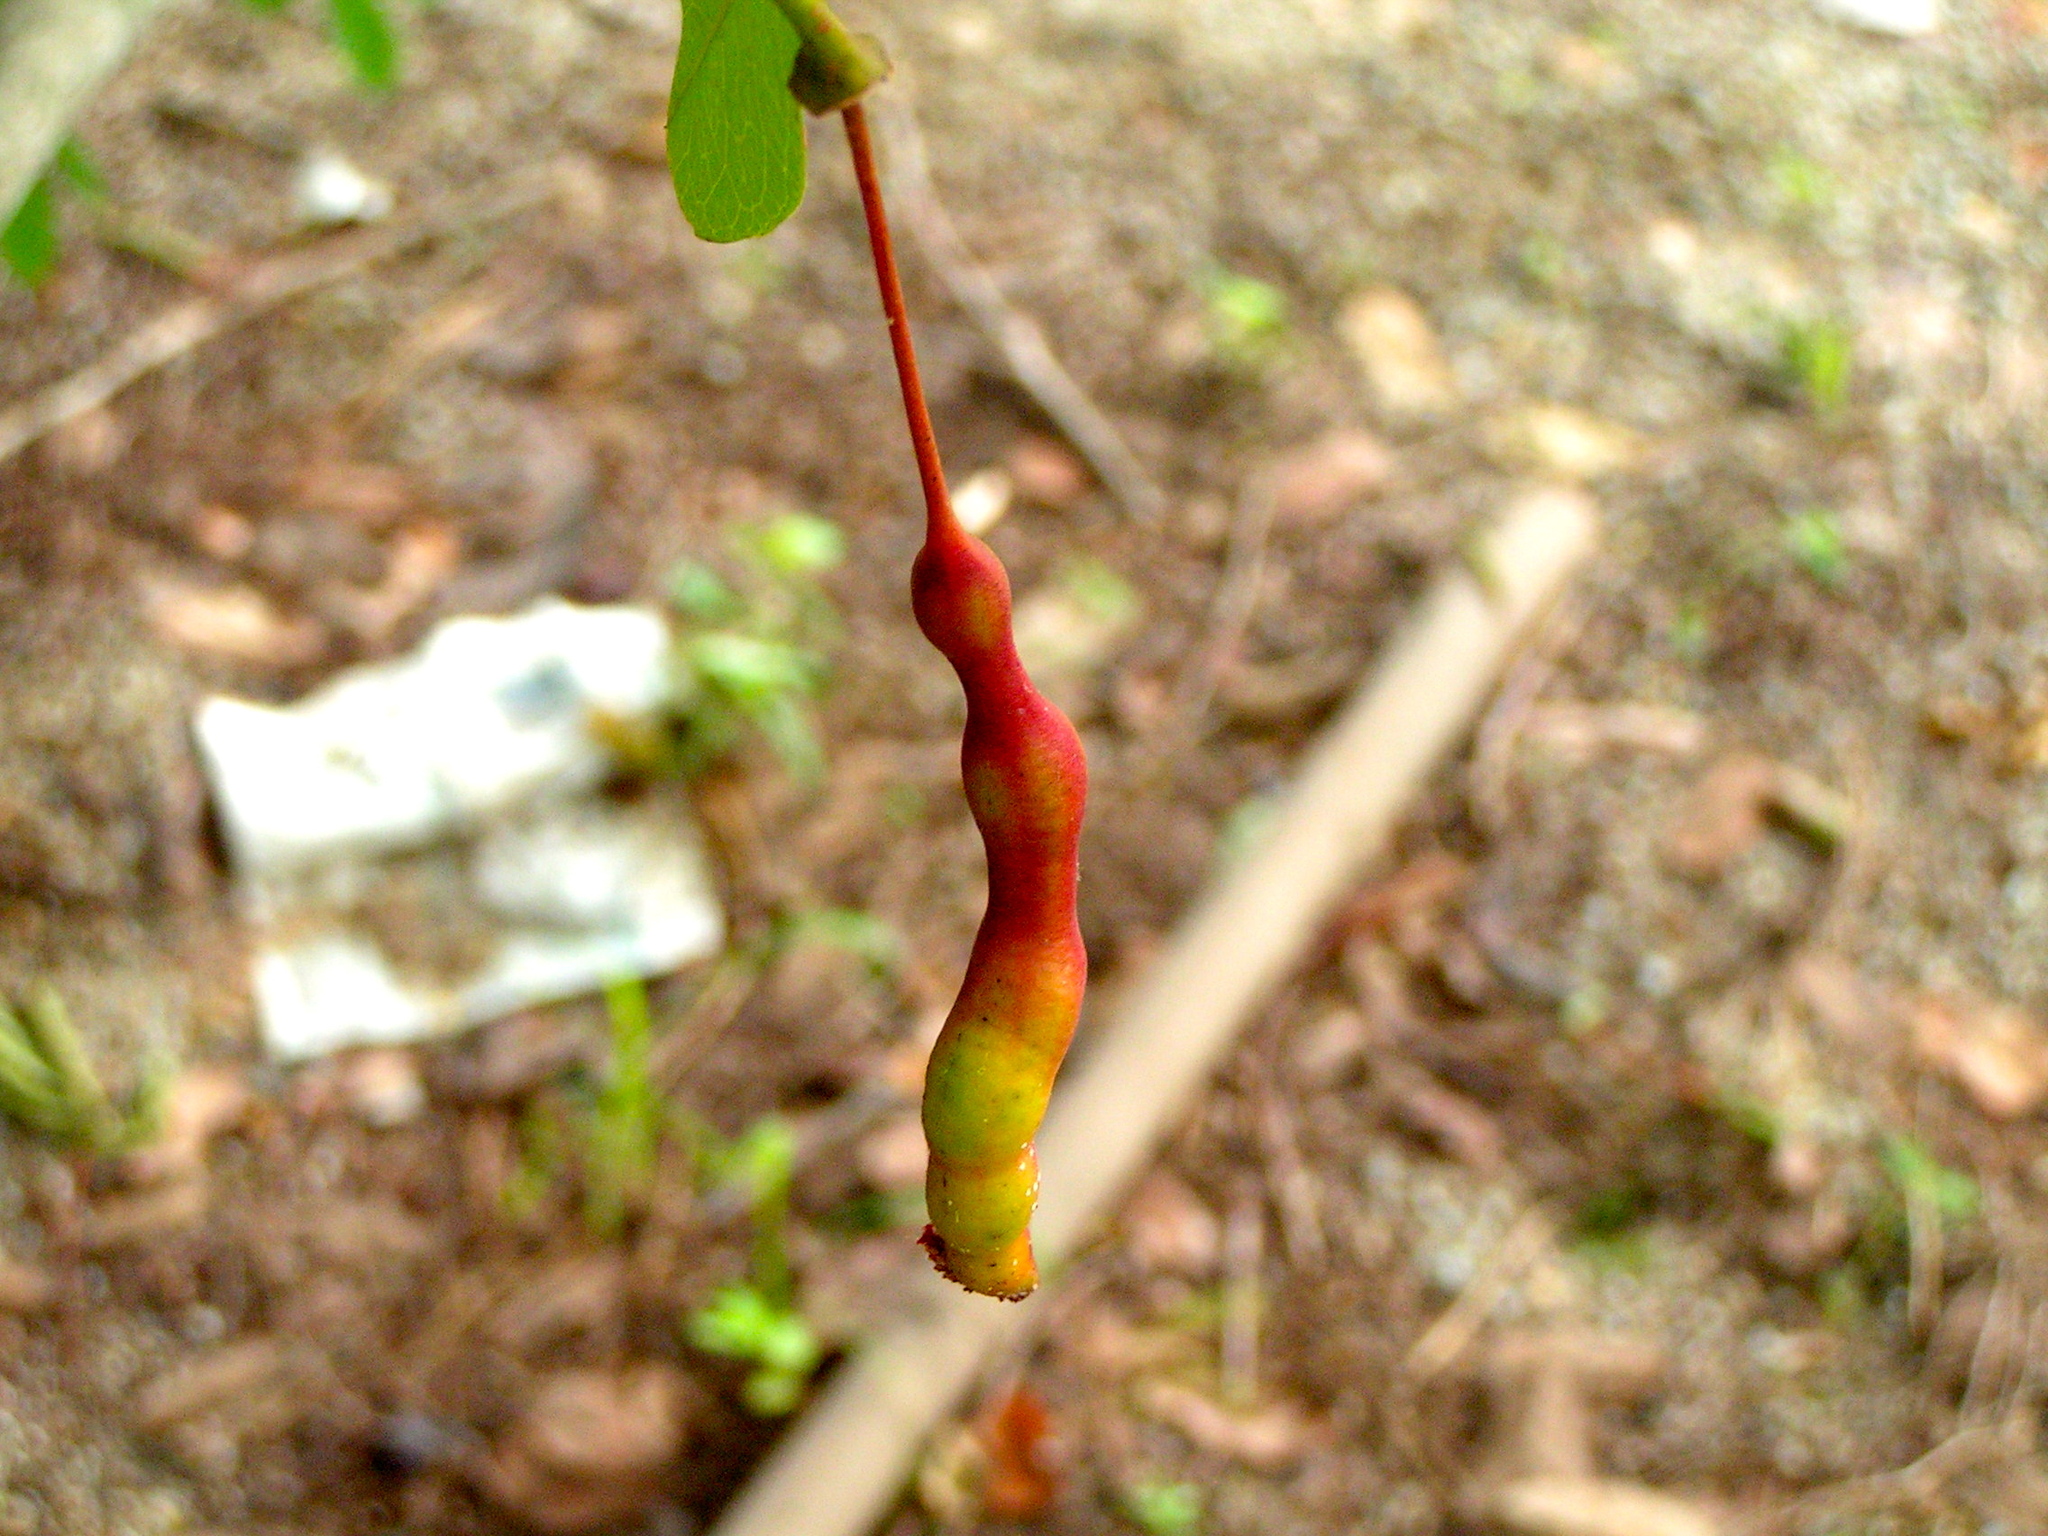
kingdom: Plantae
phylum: Tracheophyta
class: Magnoliopsida
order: Brassicales
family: Capparaceae
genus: Cynophalla
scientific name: Cynophalla flexuosa
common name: Capertree
